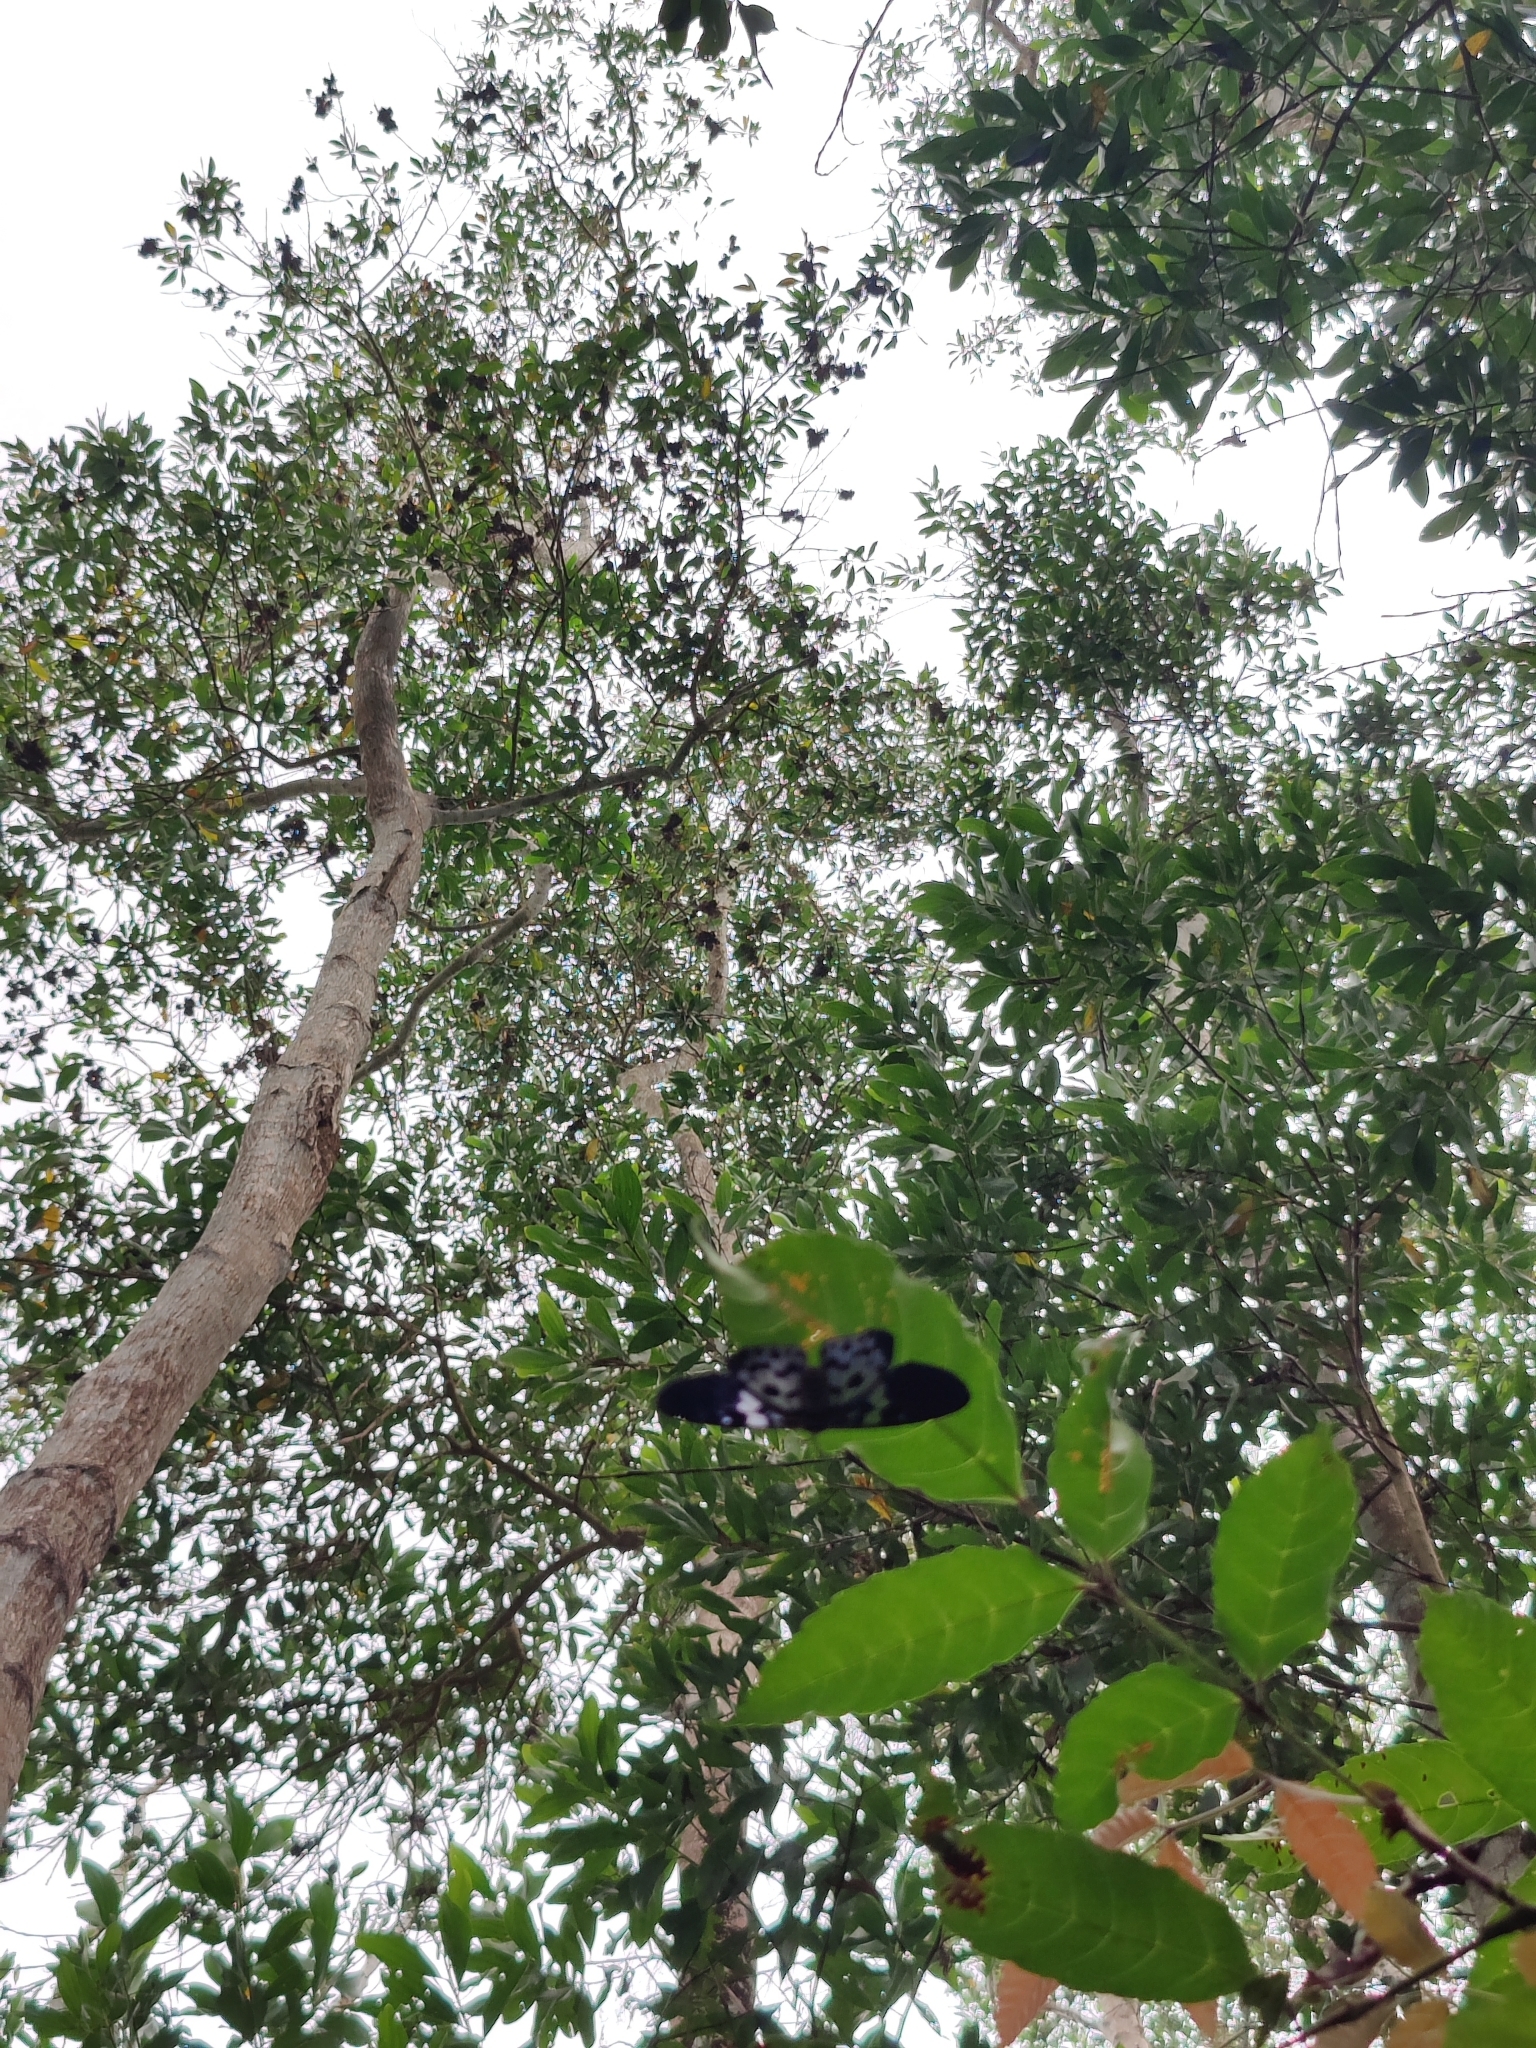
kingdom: Animalia
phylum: Arthropoda
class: Insecta
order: Lepidoptera
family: Geometridae
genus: Dysphania
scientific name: Dysphania percota
